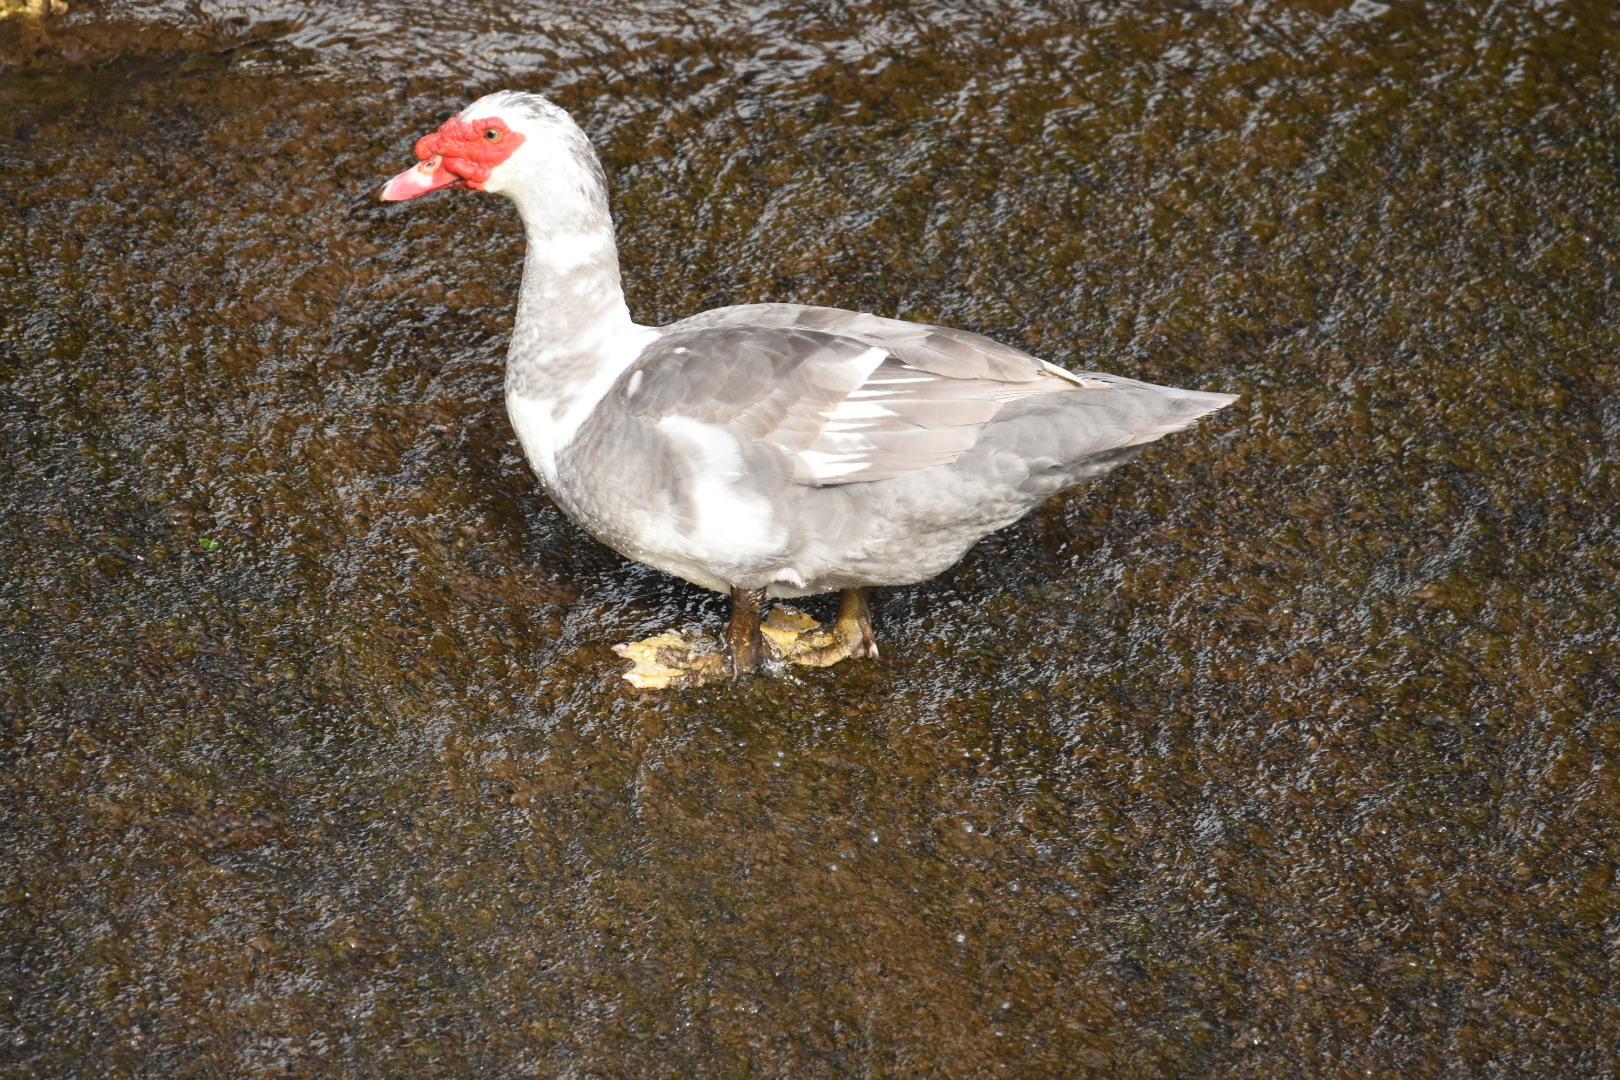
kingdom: Animalia
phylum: Chordata
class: Aves
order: Anseriformes
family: Anatidae
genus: Cairina
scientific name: Cairina moschata
